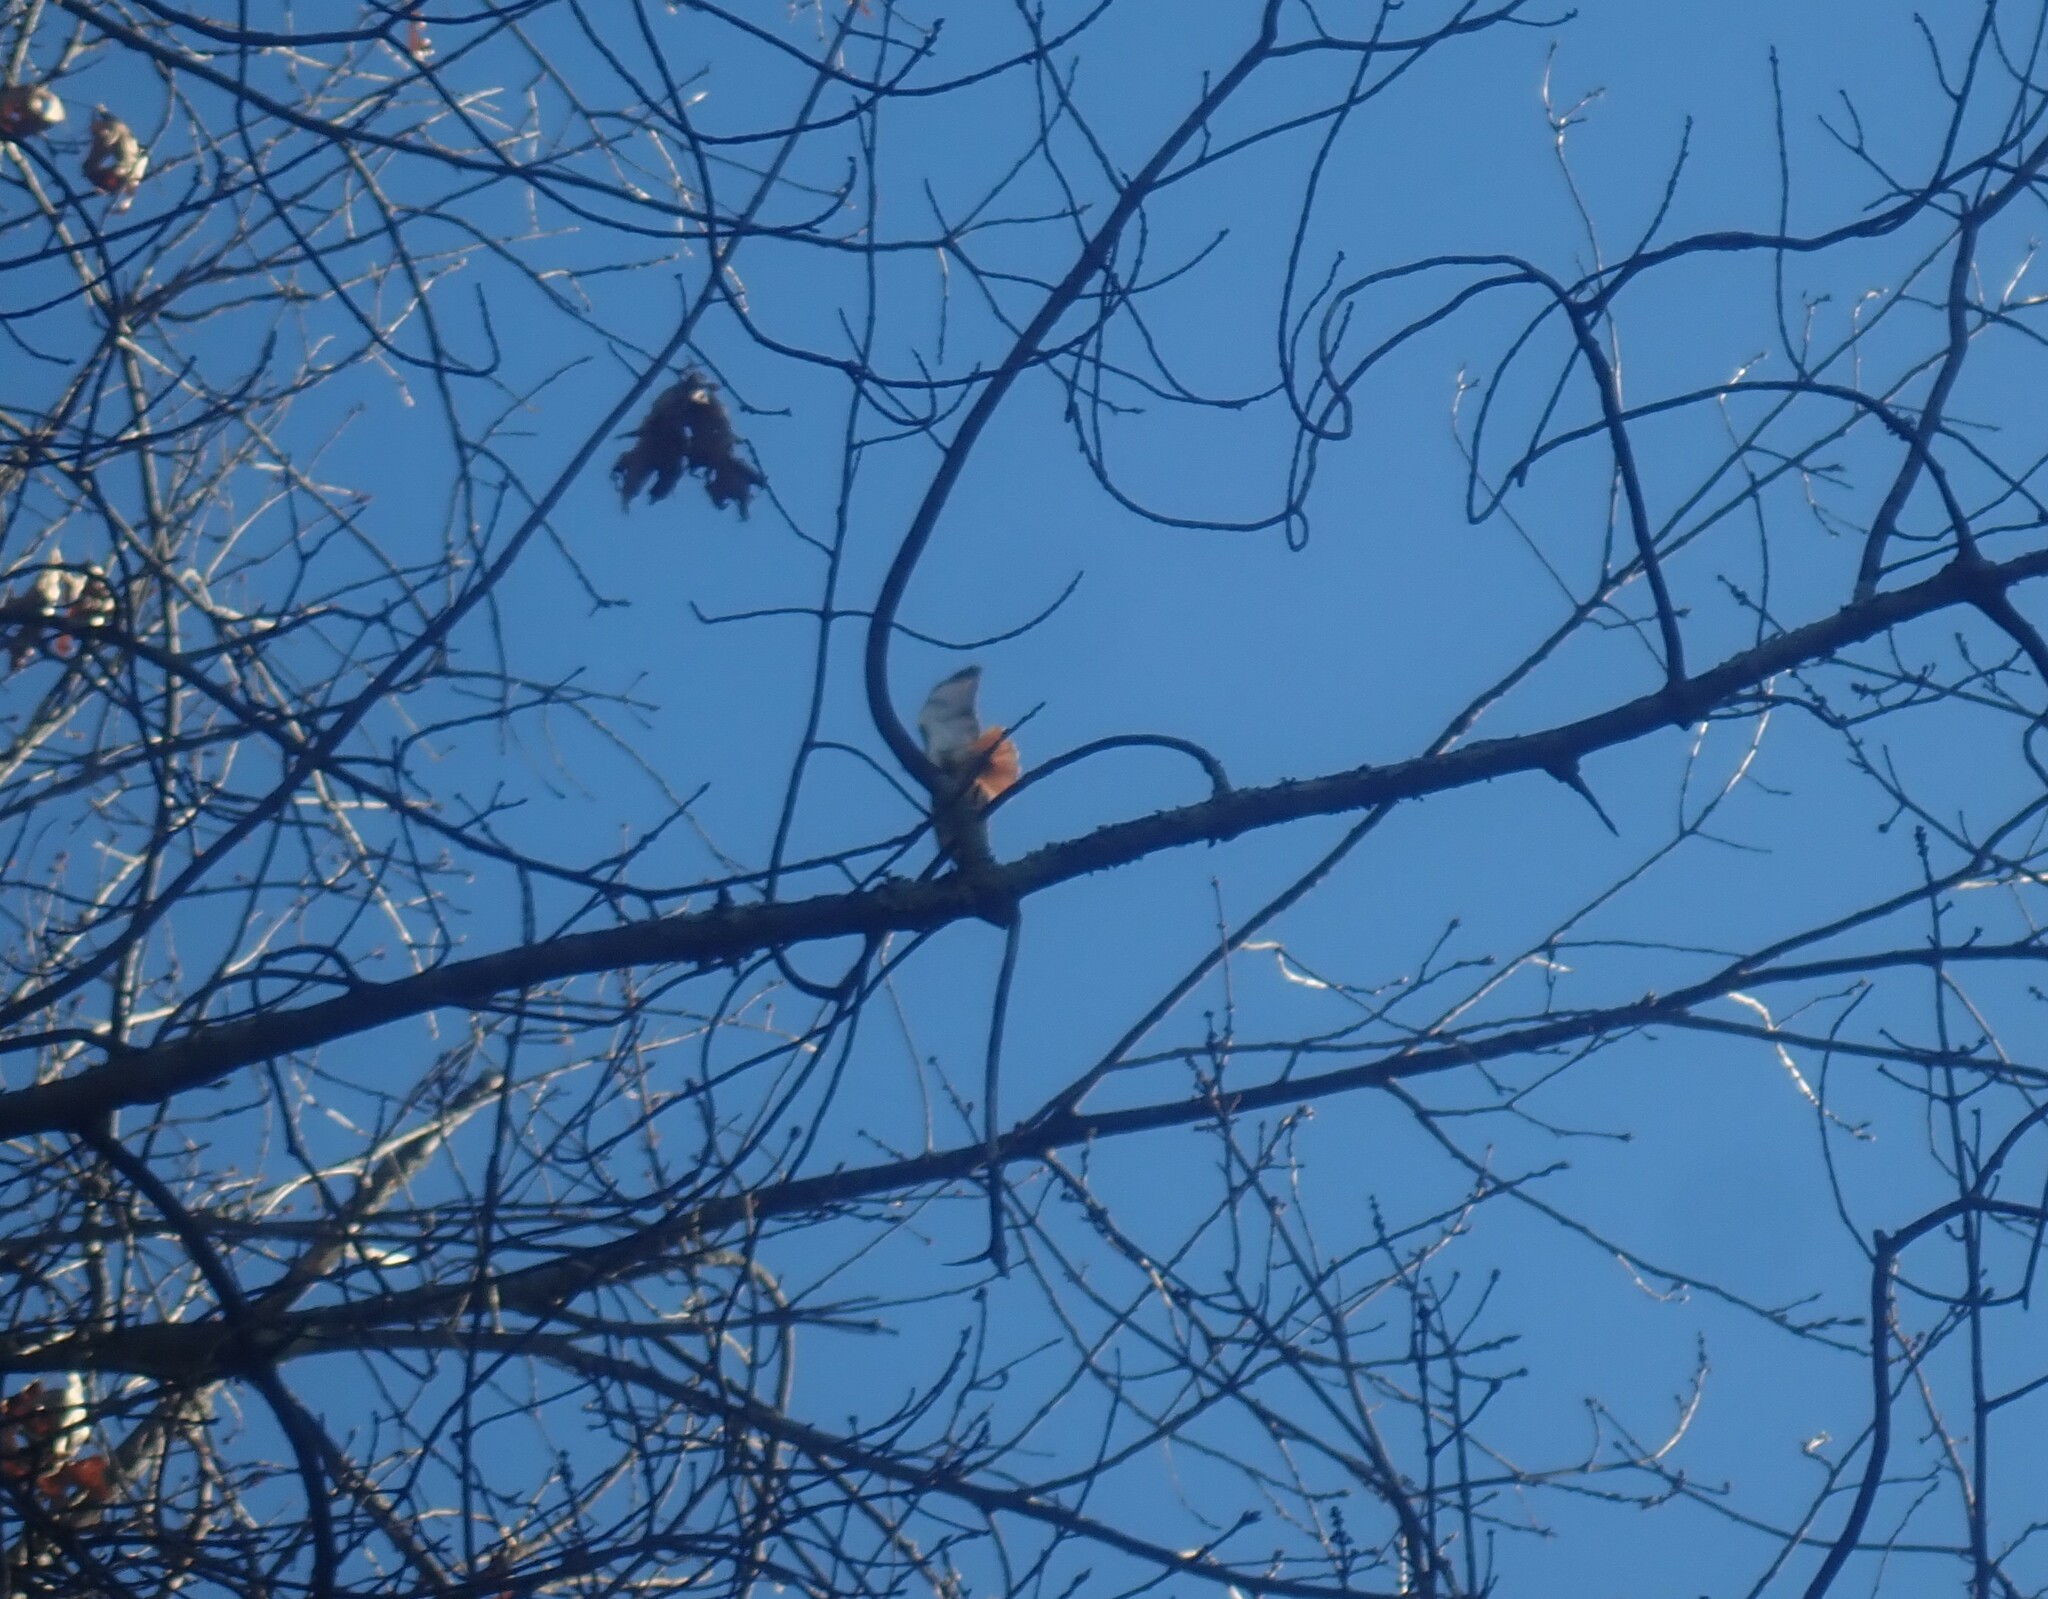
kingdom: Animalia
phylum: Chordata
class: Aves
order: Accipitriformes
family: Accipitridae
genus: Buteo
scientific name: Buteo jamaicensis
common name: Red-tailed hawk
